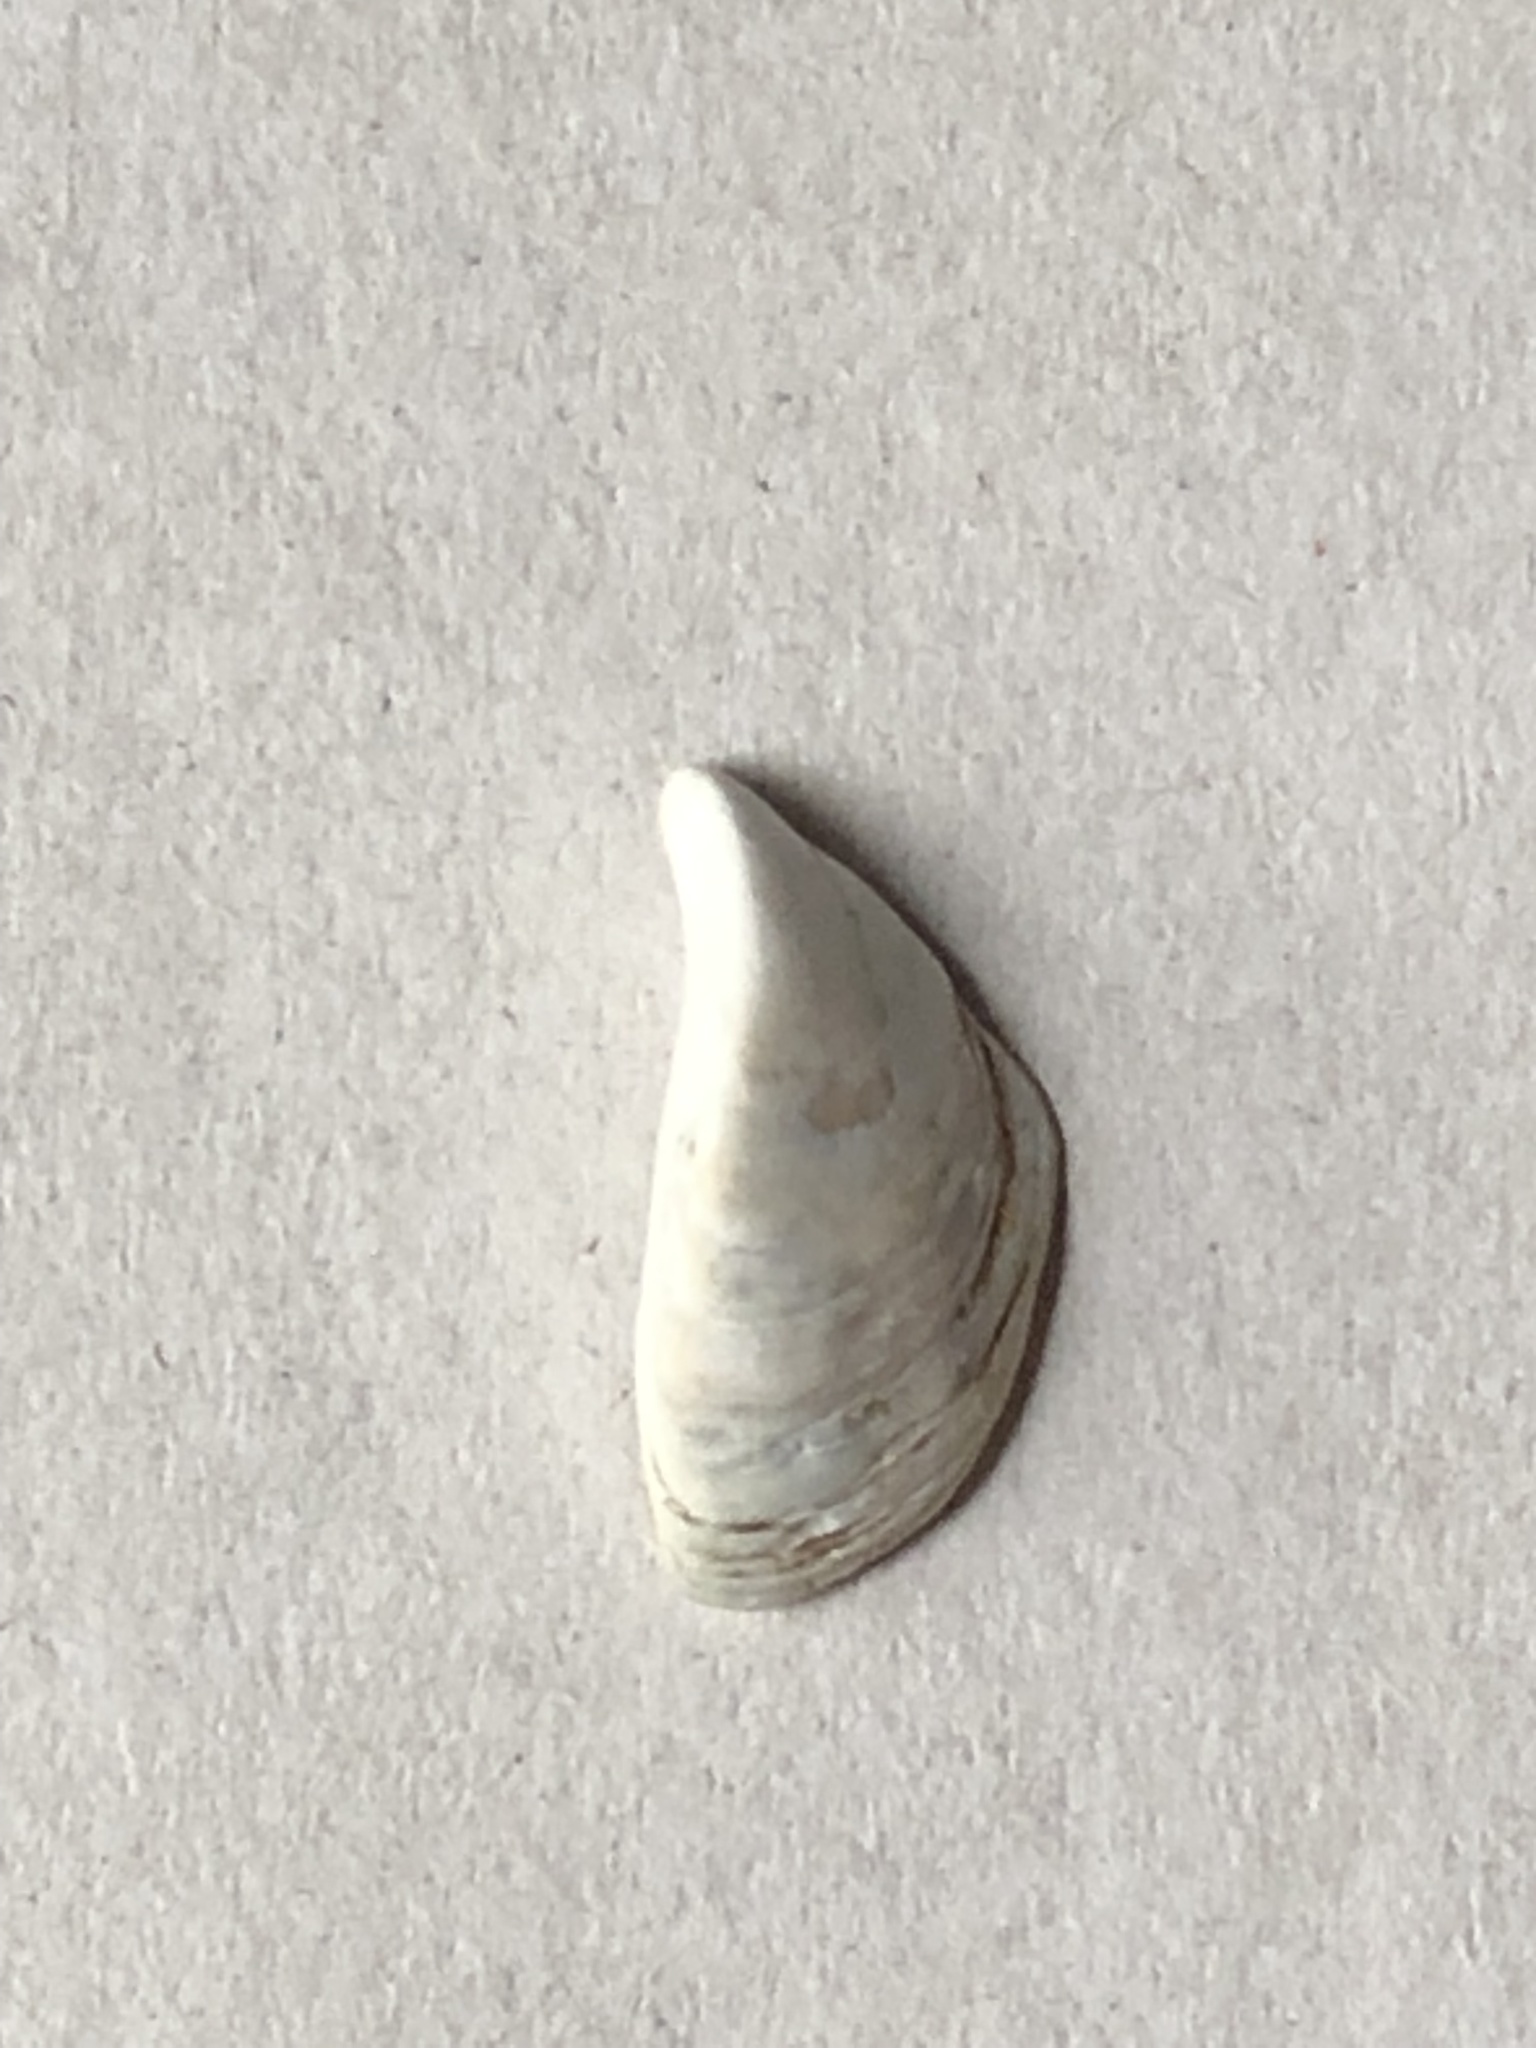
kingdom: Animalia
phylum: Mollusca
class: Bivalvia
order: Myida
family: Dreissenidae
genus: Dreissena
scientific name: Dreissena polymorpha
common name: Zebra mussel
